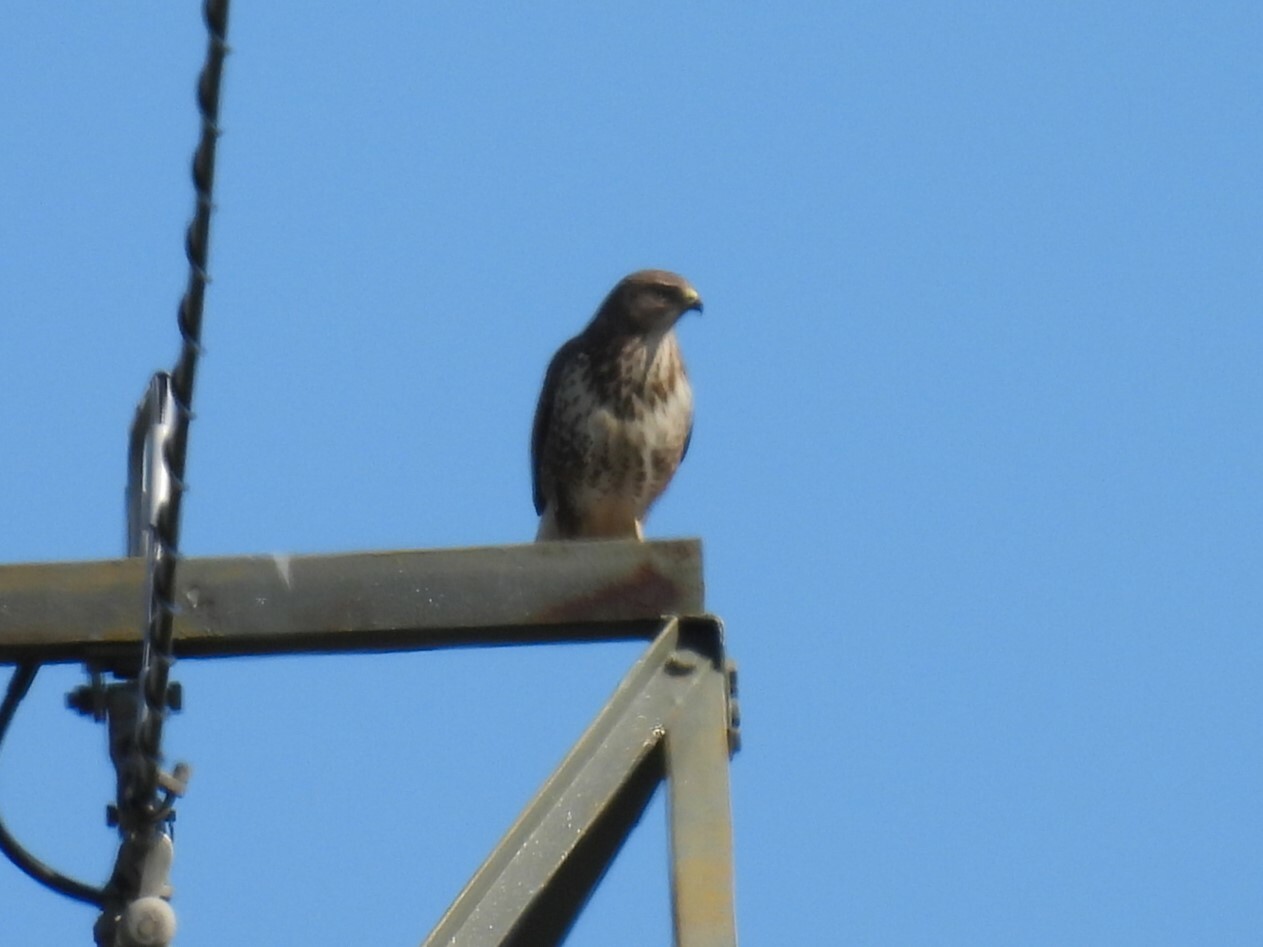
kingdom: Animalia
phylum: Chordata
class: Aves
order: Accipitriformes
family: Accipitridae
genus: Buteo
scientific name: Buteo buteo
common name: Common buzzard
